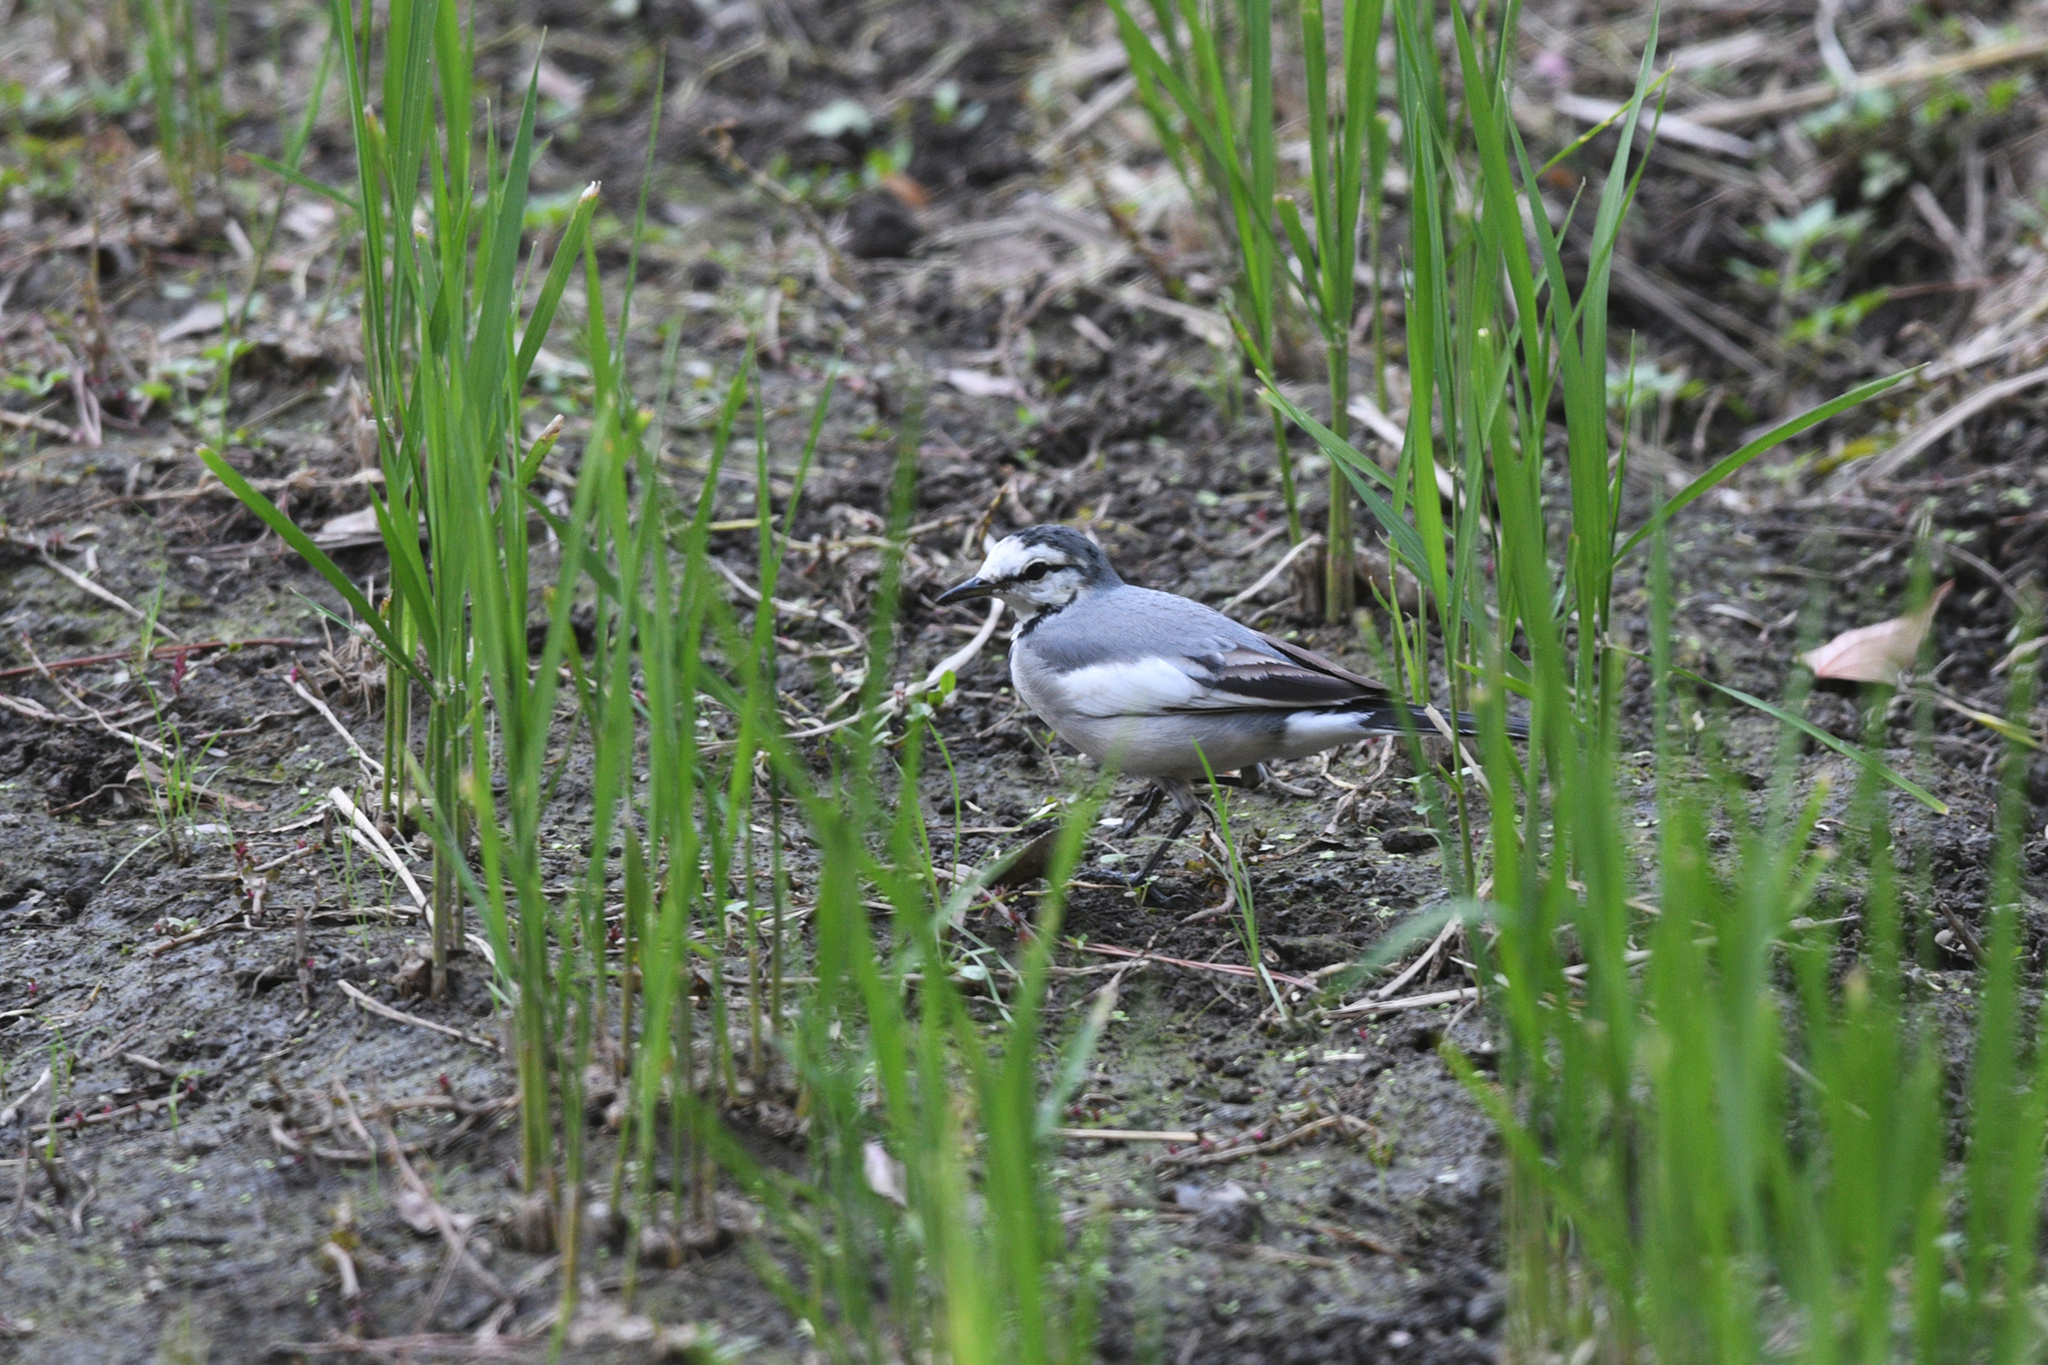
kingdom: Animalia
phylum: Chordata
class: Aves
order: Passeriformes
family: Motacillidae
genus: Motacilla
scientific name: Motacilla alba
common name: White wagtail
